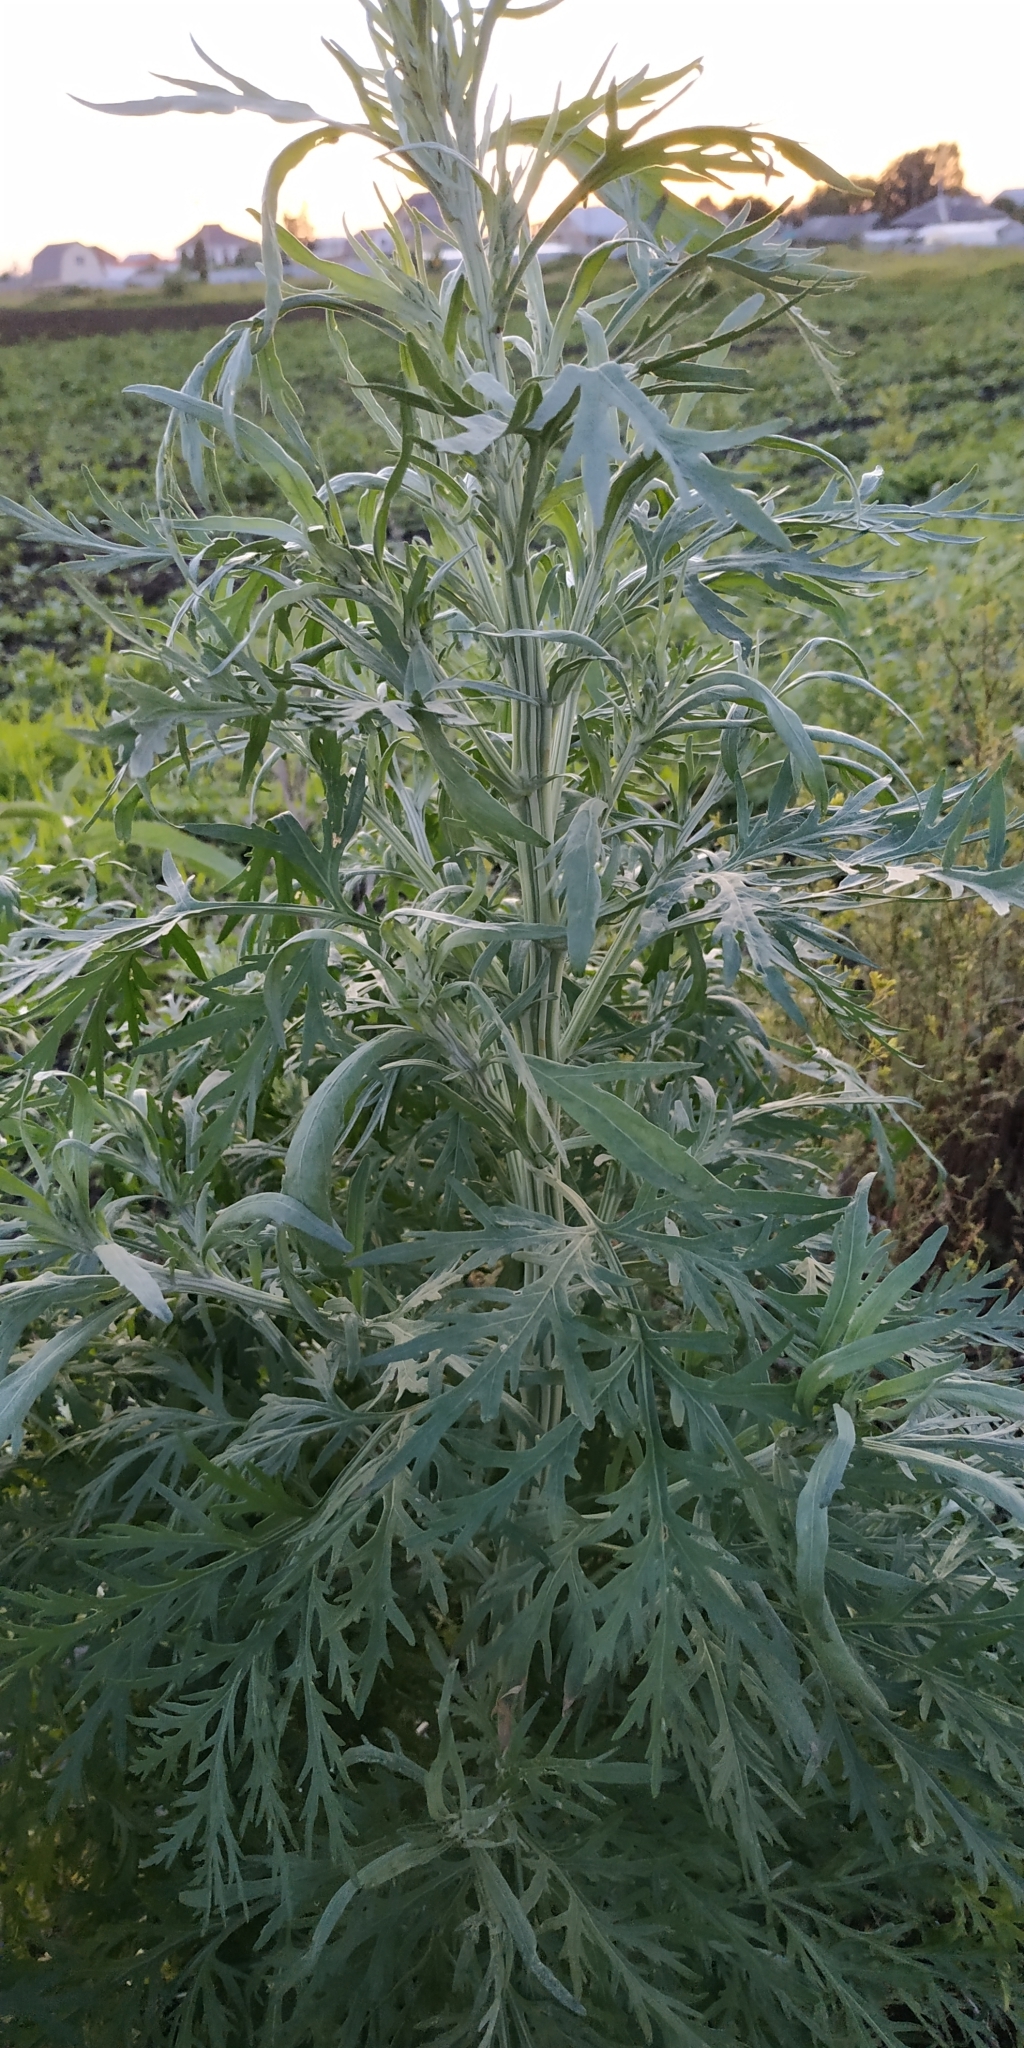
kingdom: Plantae
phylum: Tracheophyta
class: Magnoliopsida
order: Asterales
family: Asteraceae
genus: Artemisia
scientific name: Artemisia sieversiana
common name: Sieversian wormwood
